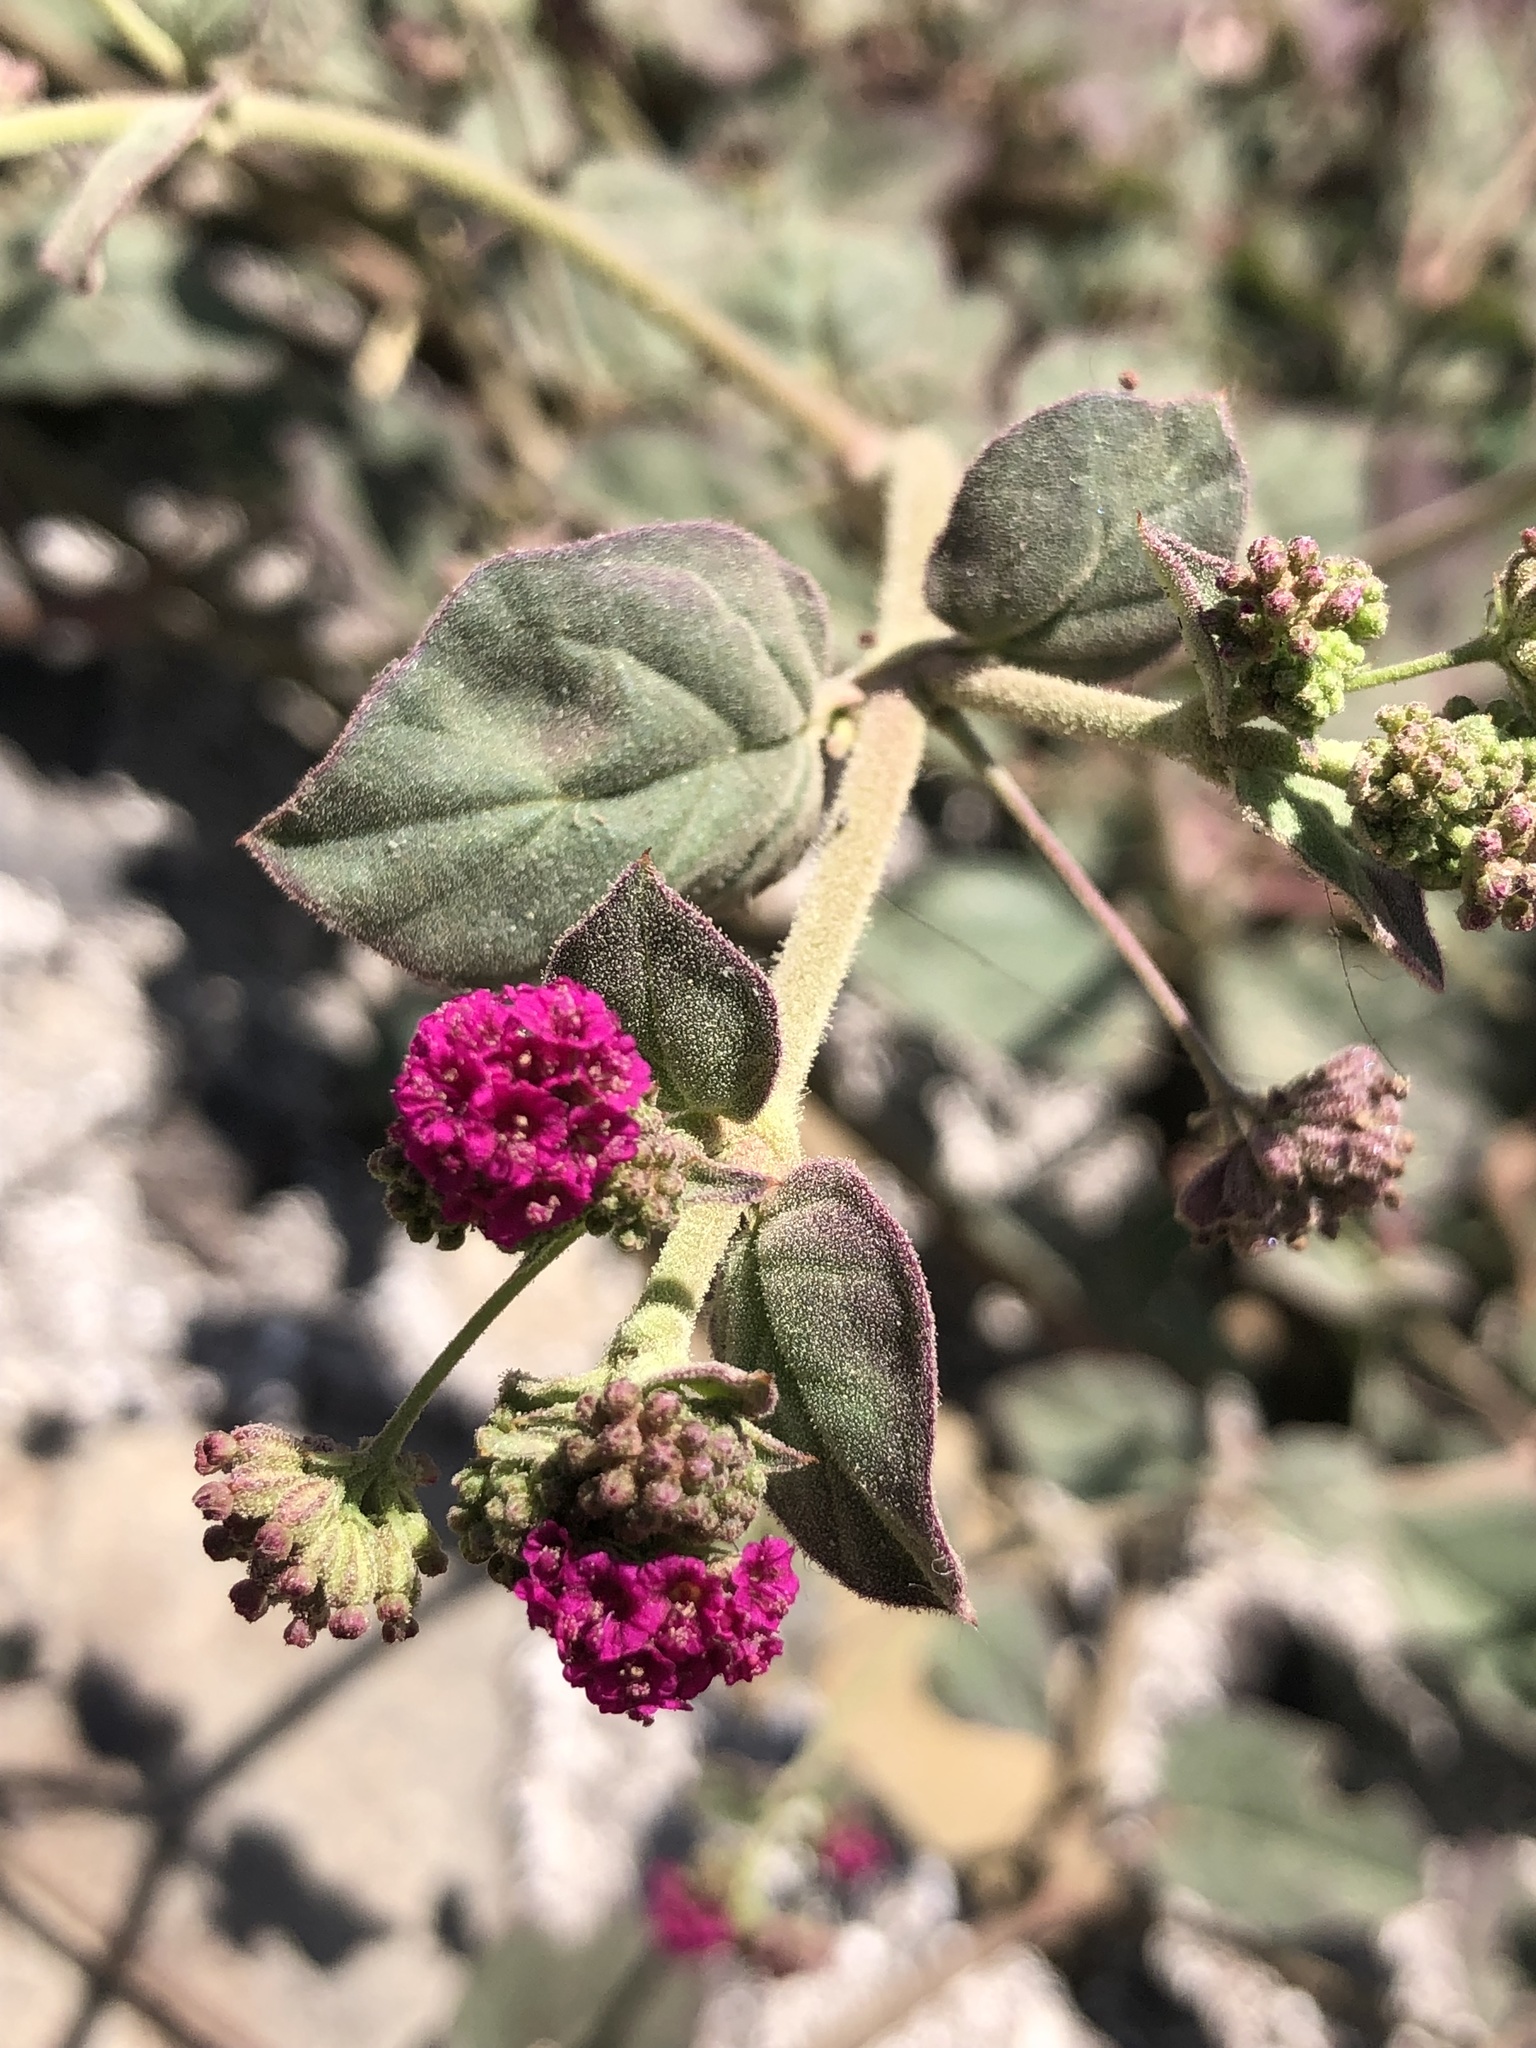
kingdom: Plantae
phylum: Tracheophyta
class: Magnoliopsida
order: Caryophyllales
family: Nyctaginaceae
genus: Boerhavia
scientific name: Boerhavia coccinea
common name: Scarlet spiderling
